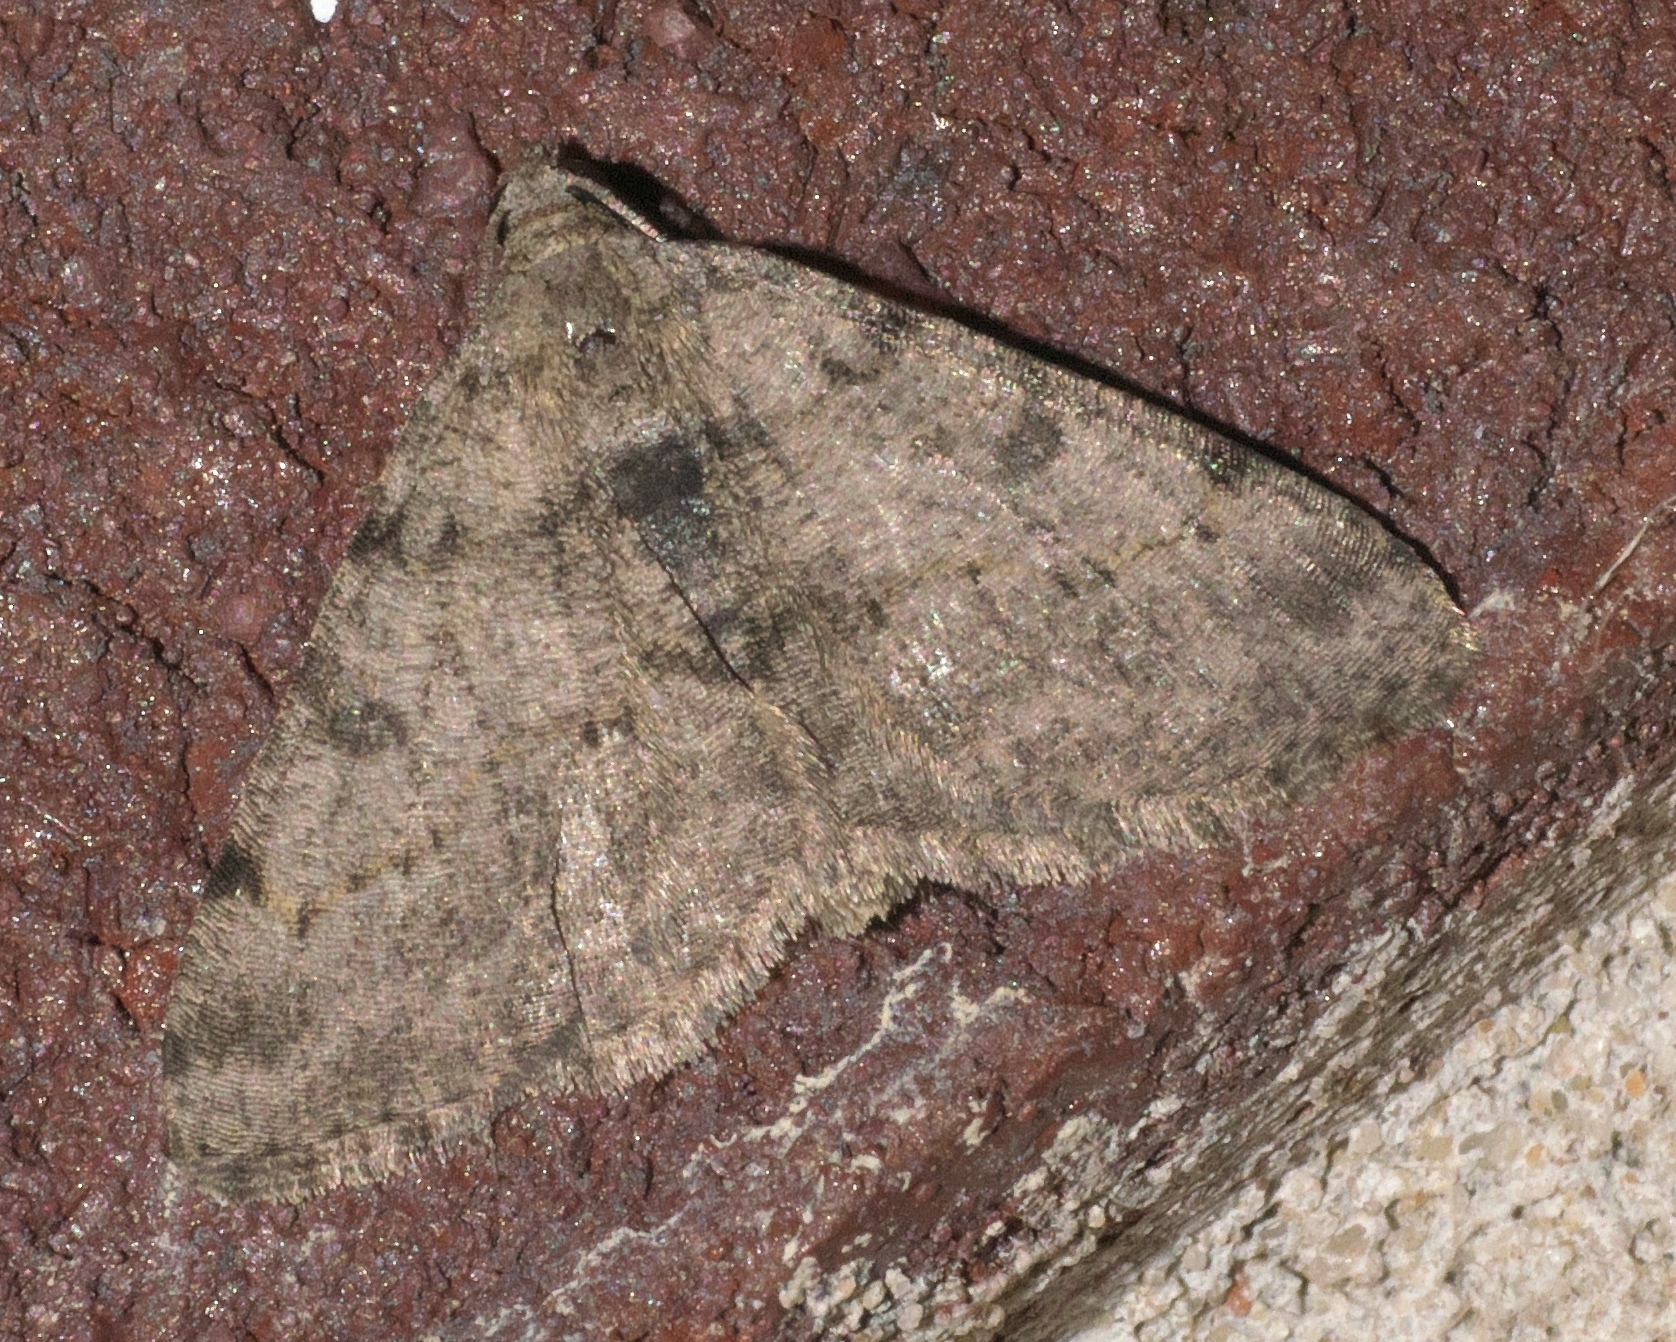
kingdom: Animalia
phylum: Arthropoda
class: Insecta
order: Lepidoptera
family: Geometridae
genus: Digrammia
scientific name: Digrammia gnophosaria
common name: Hollow-spotted angle
